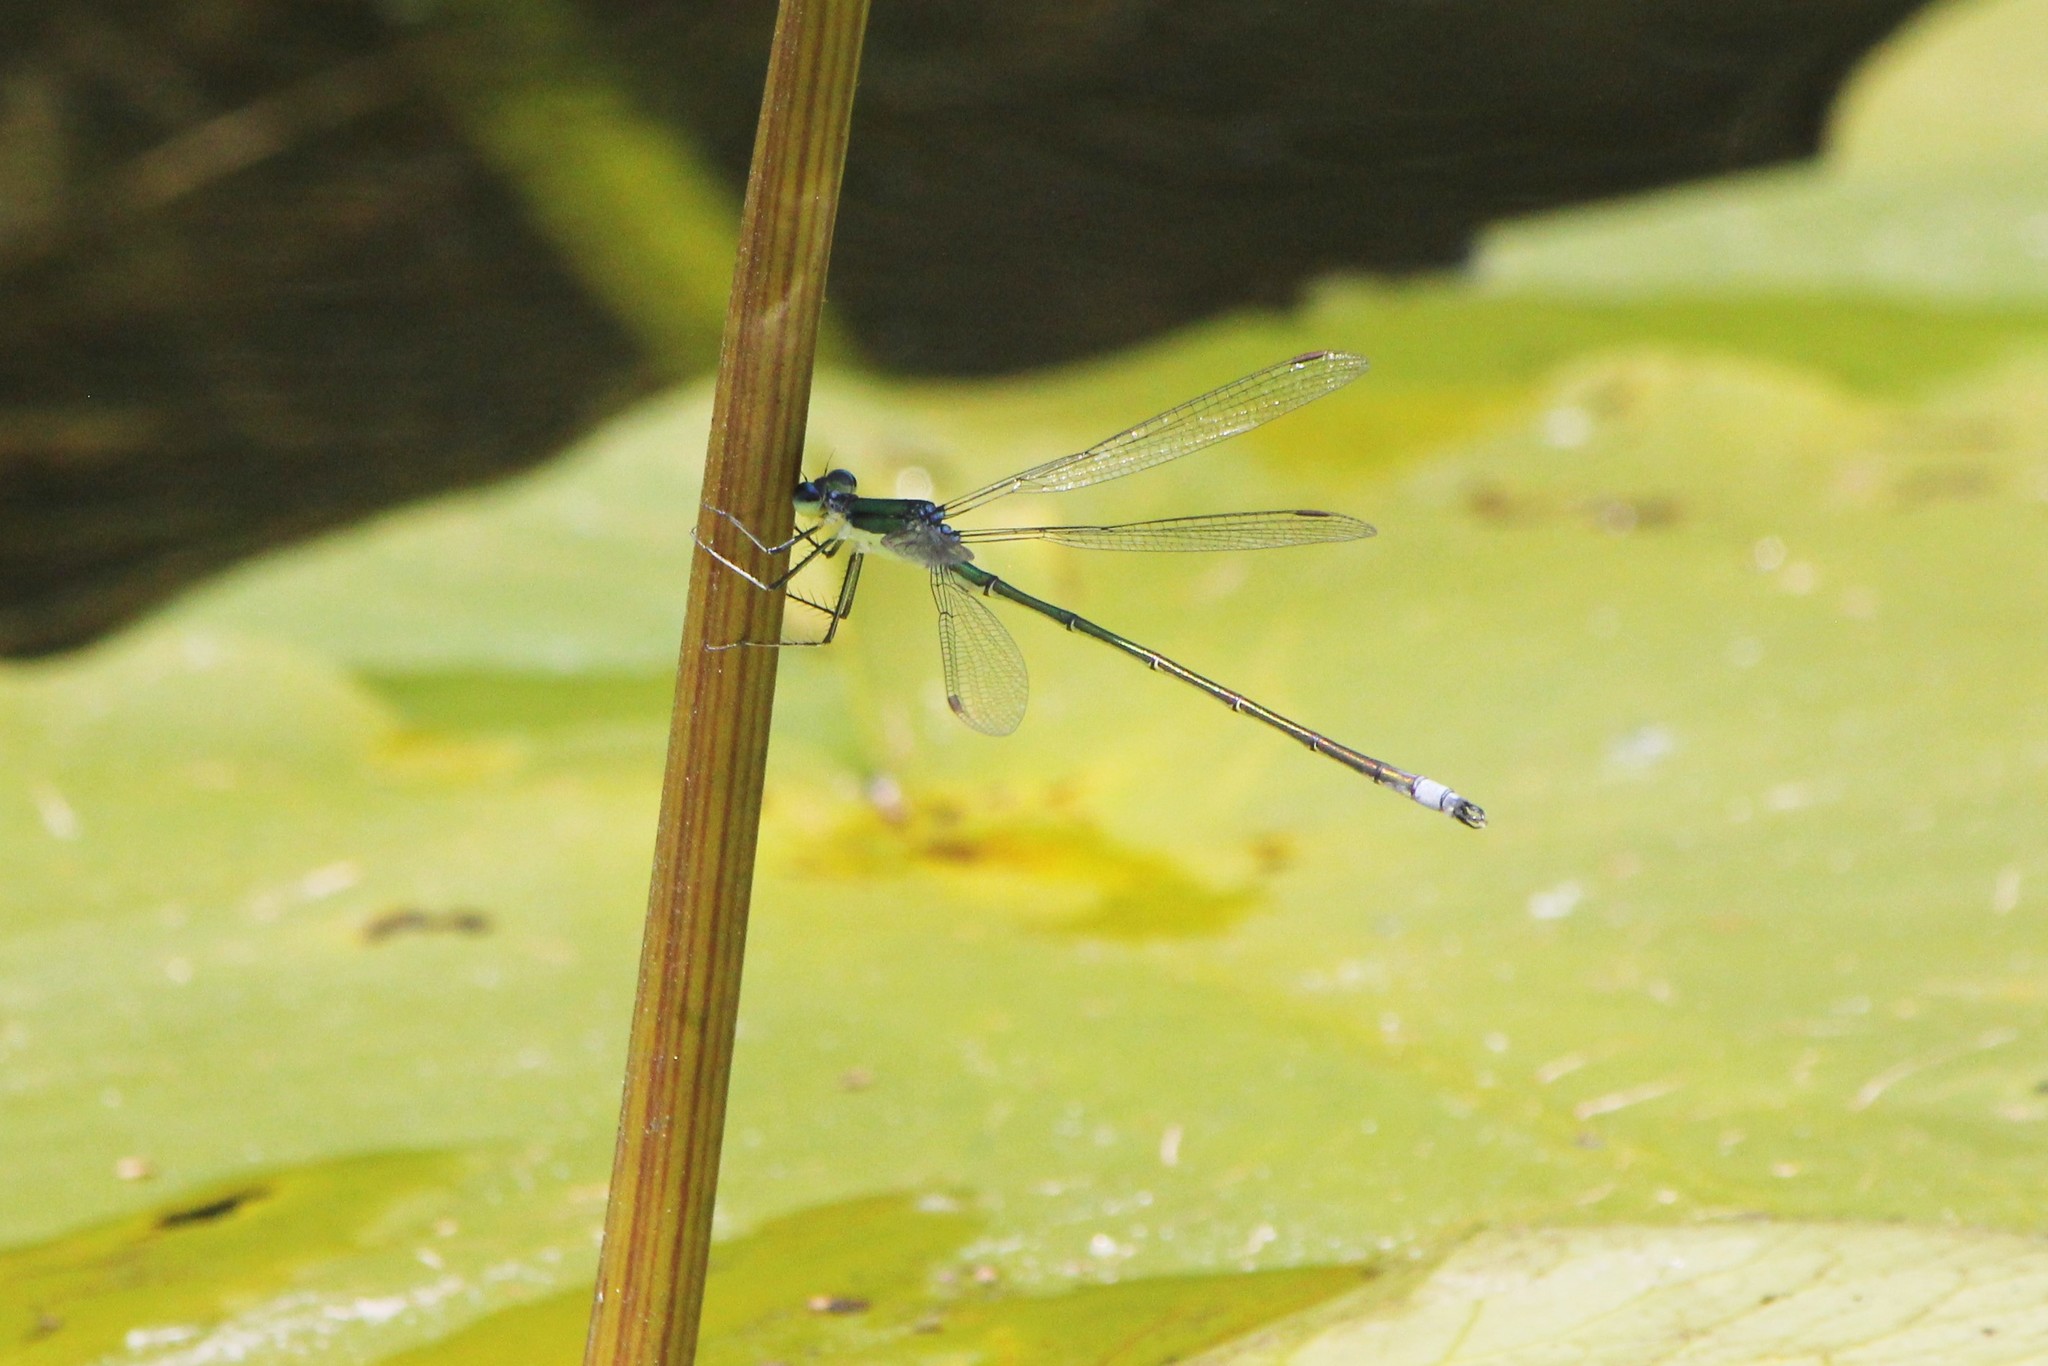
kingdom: Animalia
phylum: Arthropoda
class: Insecta
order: Odonata
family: Lestidae
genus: Lestes
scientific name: Lestes inaequalis
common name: Elegant spreadwing
